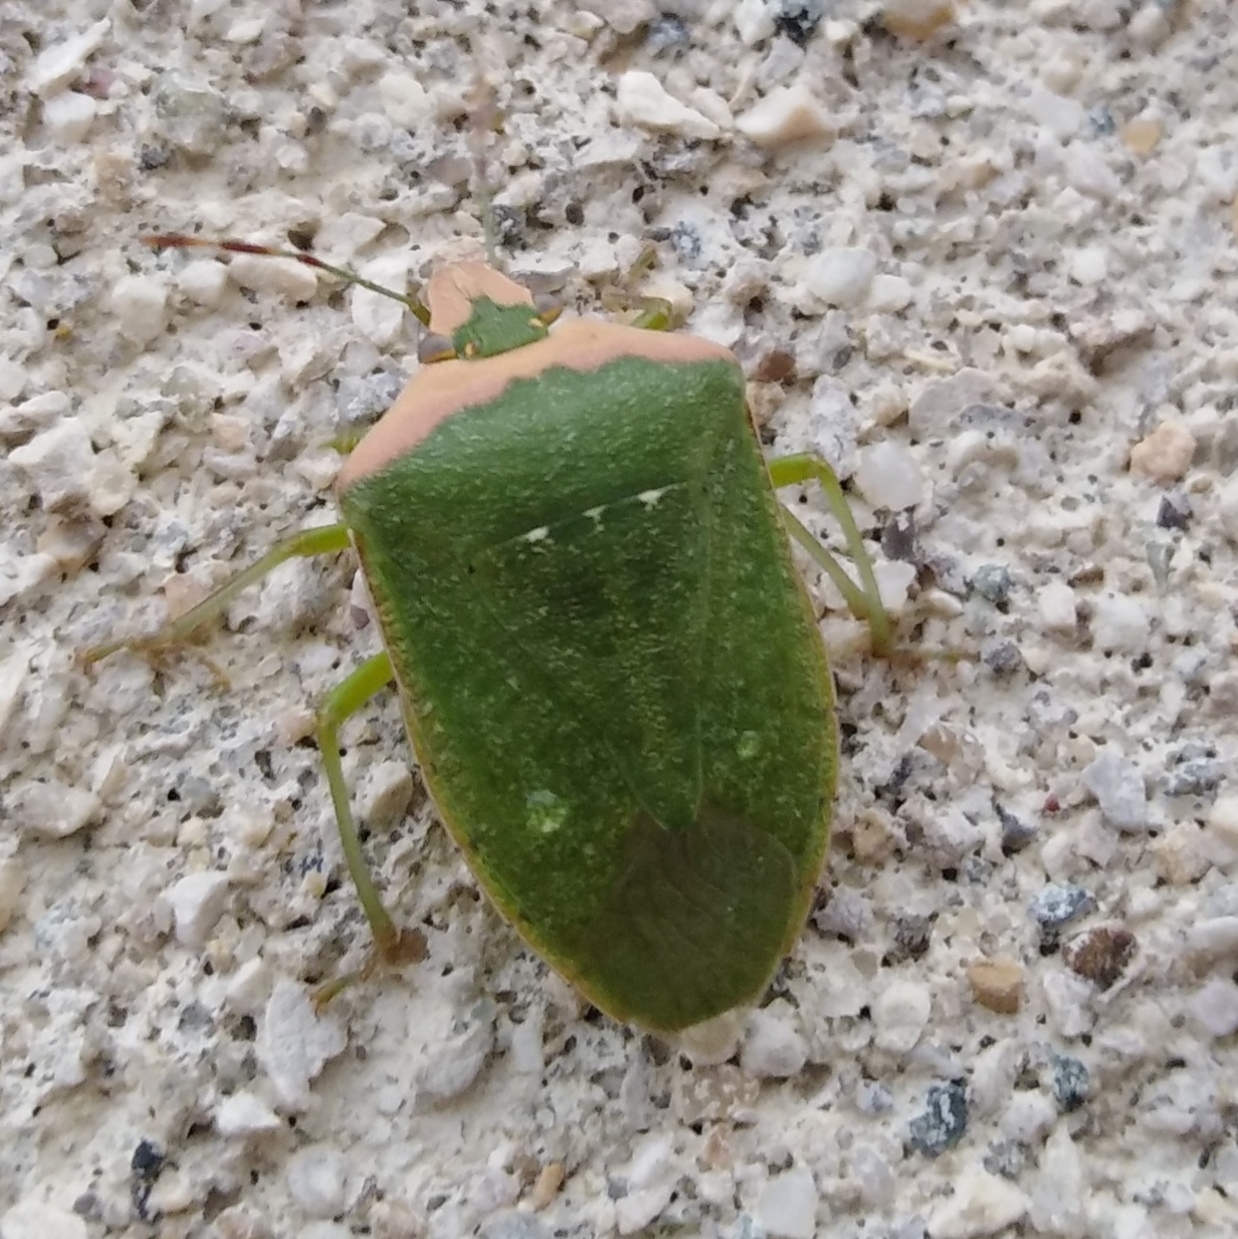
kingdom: Animalia
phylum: Arthropoda
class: Insecta
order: Hemiptera
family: Pentatomidae
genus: Nezara
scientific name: Nezara viridula
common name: Southern green stink bug
